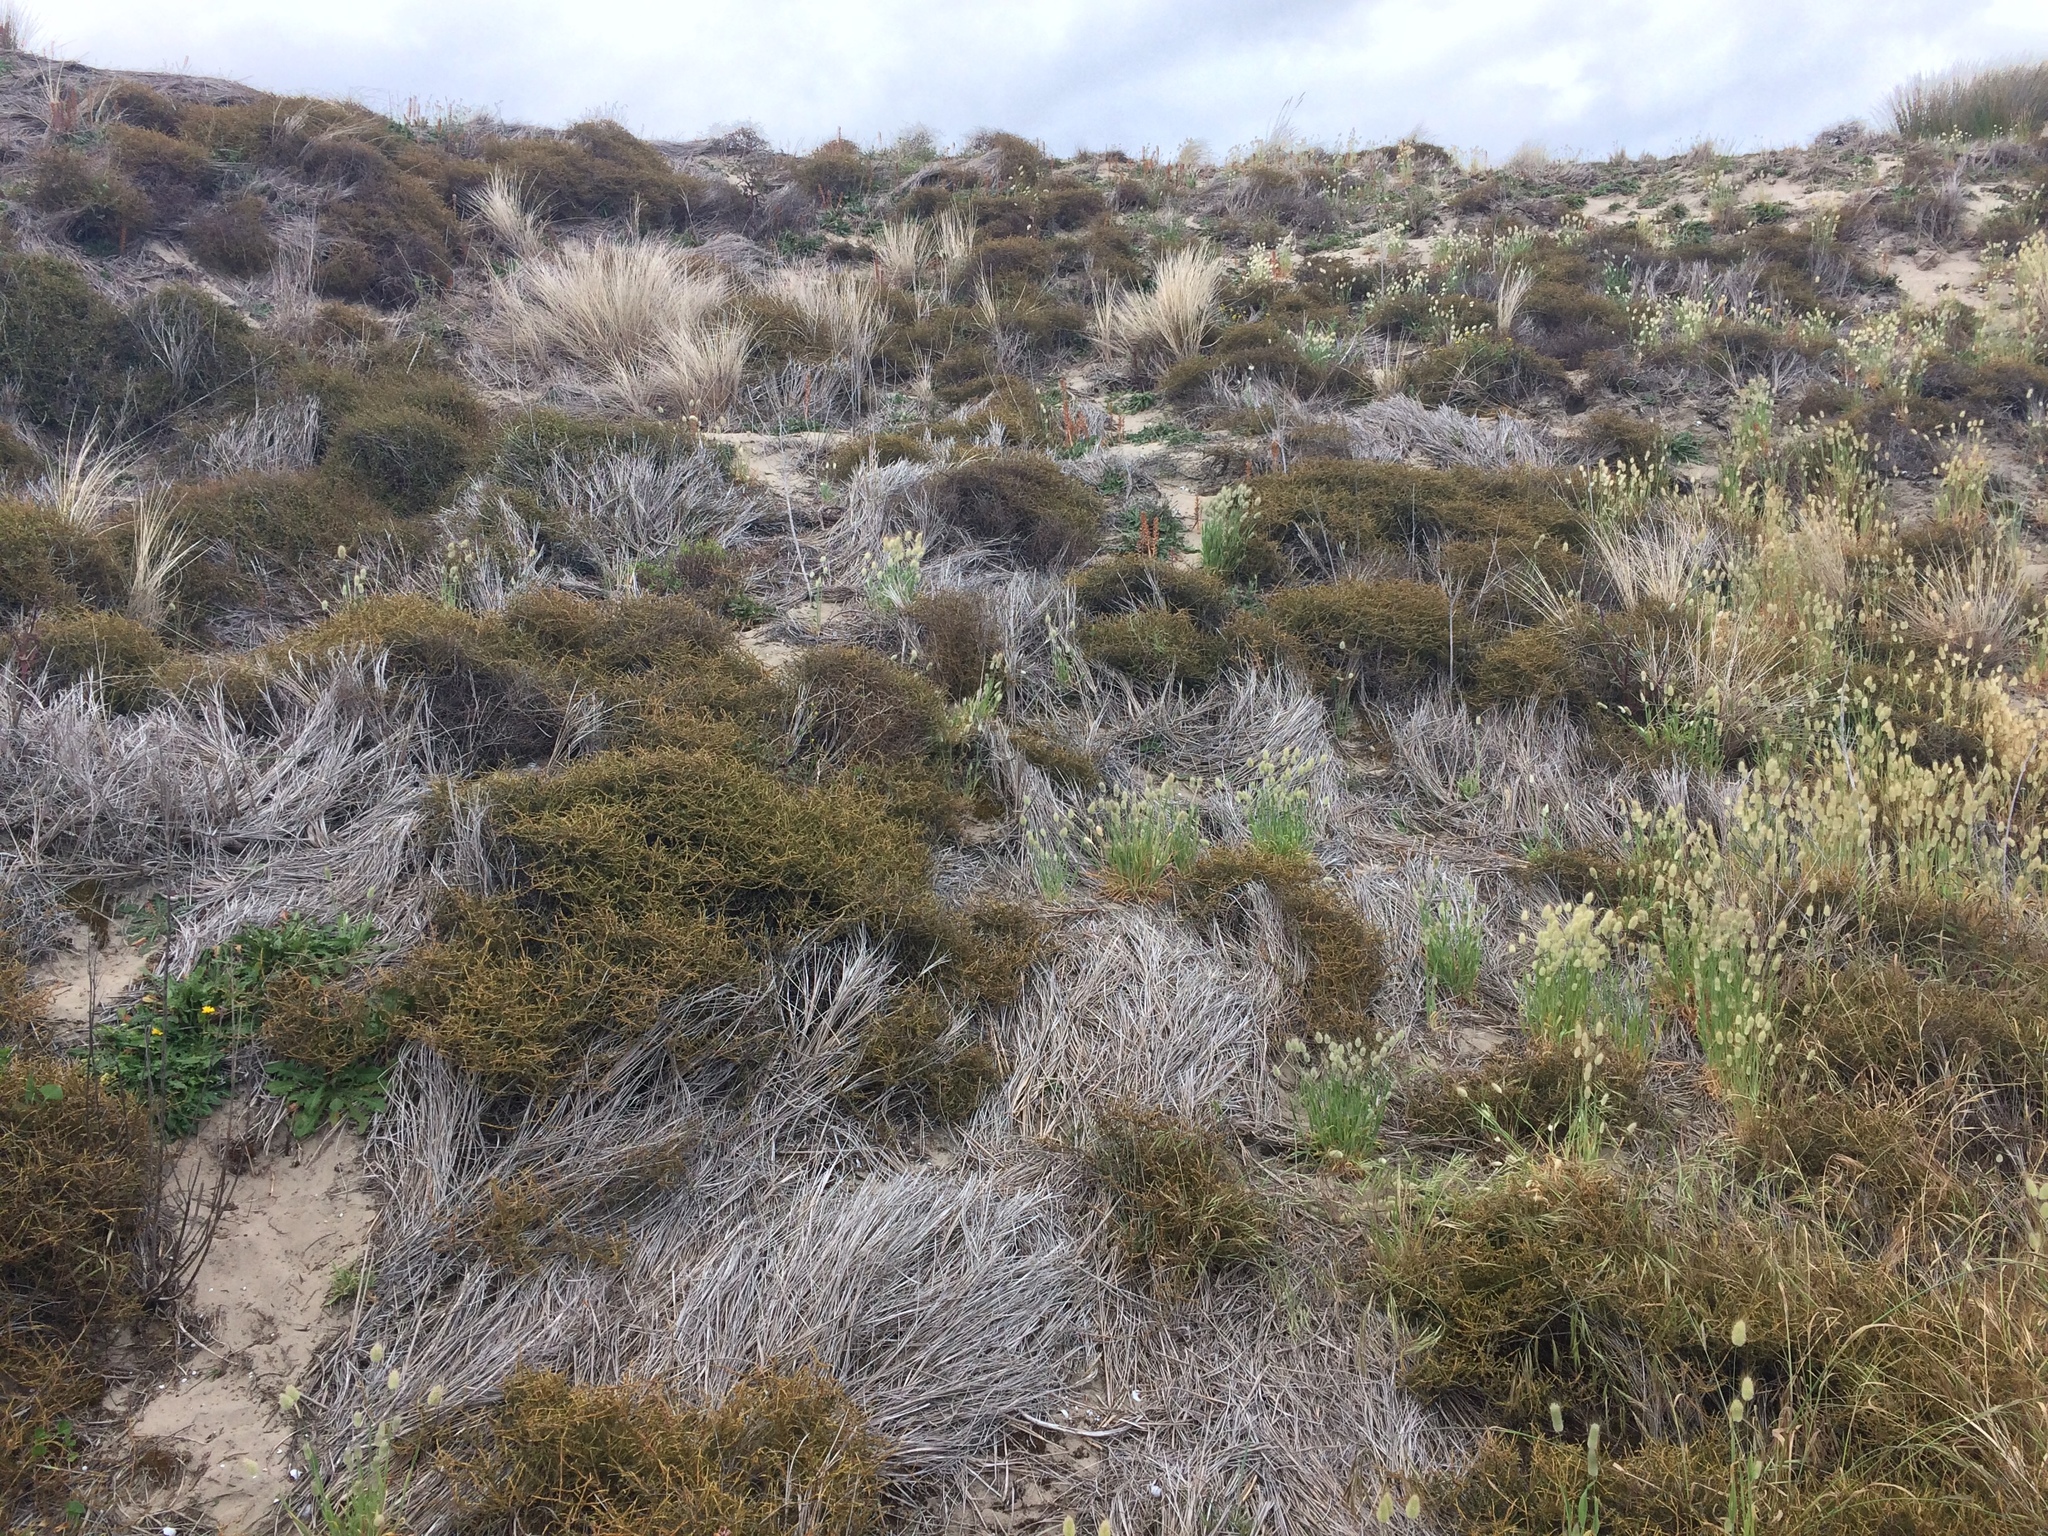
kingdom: Plantae
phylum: Tracheophyta
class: Magnoliopsida
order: Gentianales
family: Rubiaceae
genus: Coprosma
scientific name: Coprosma acerosa
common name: Sand coprosma
